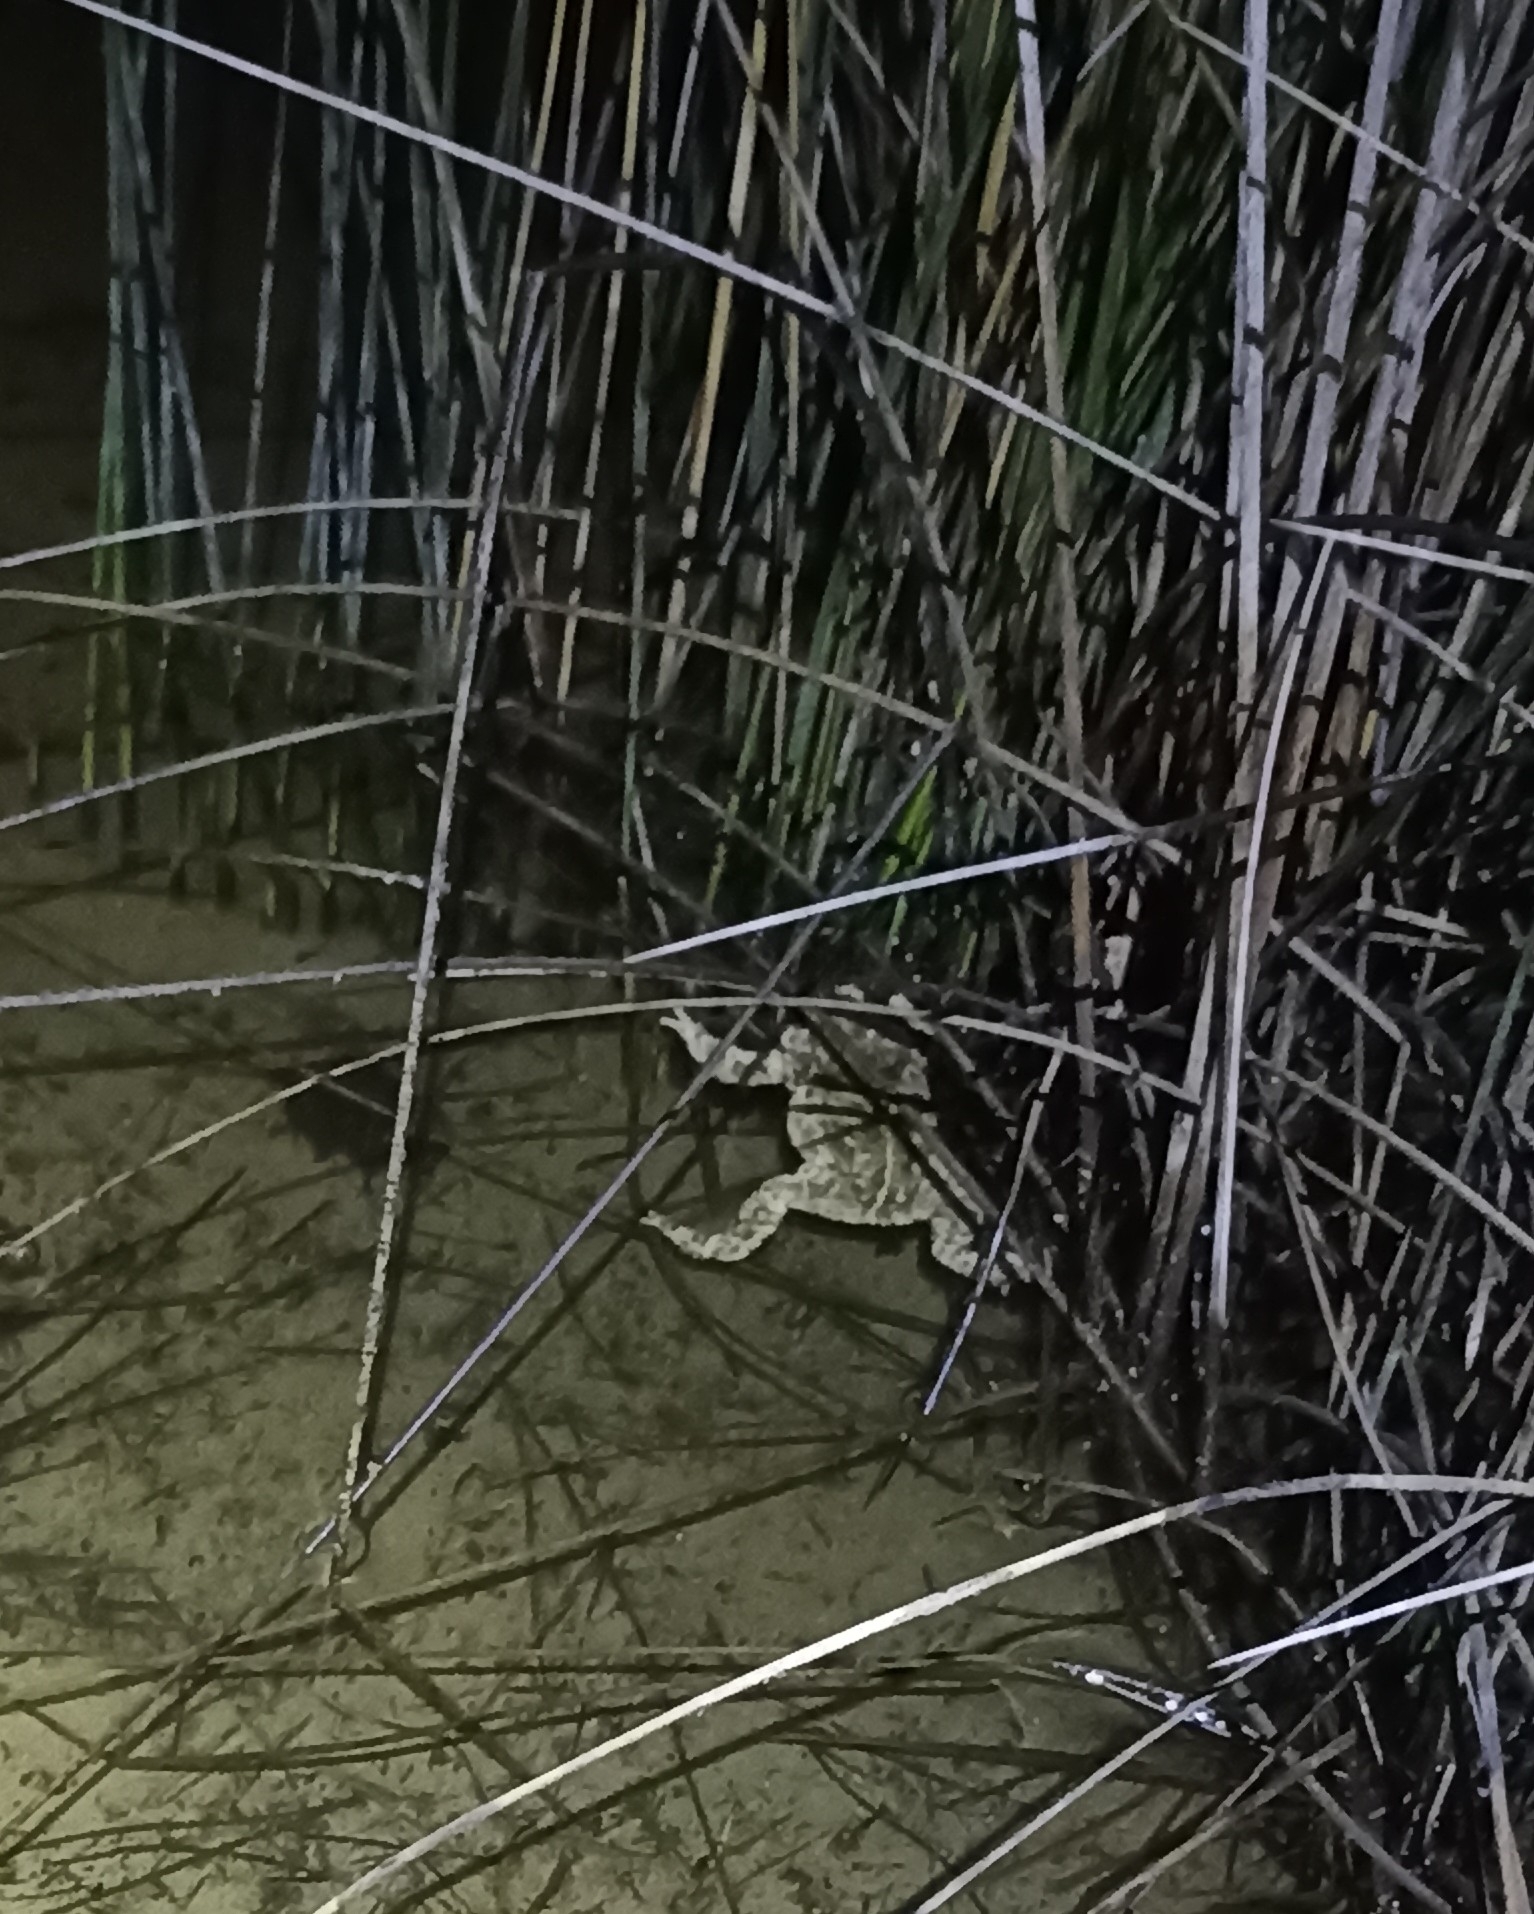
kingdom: Animalia
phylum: Chordata
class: Amphibia
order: Anura
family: Bufonidae
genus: Epidalea
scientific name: Epidalea calamita
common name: Natterjack toad
